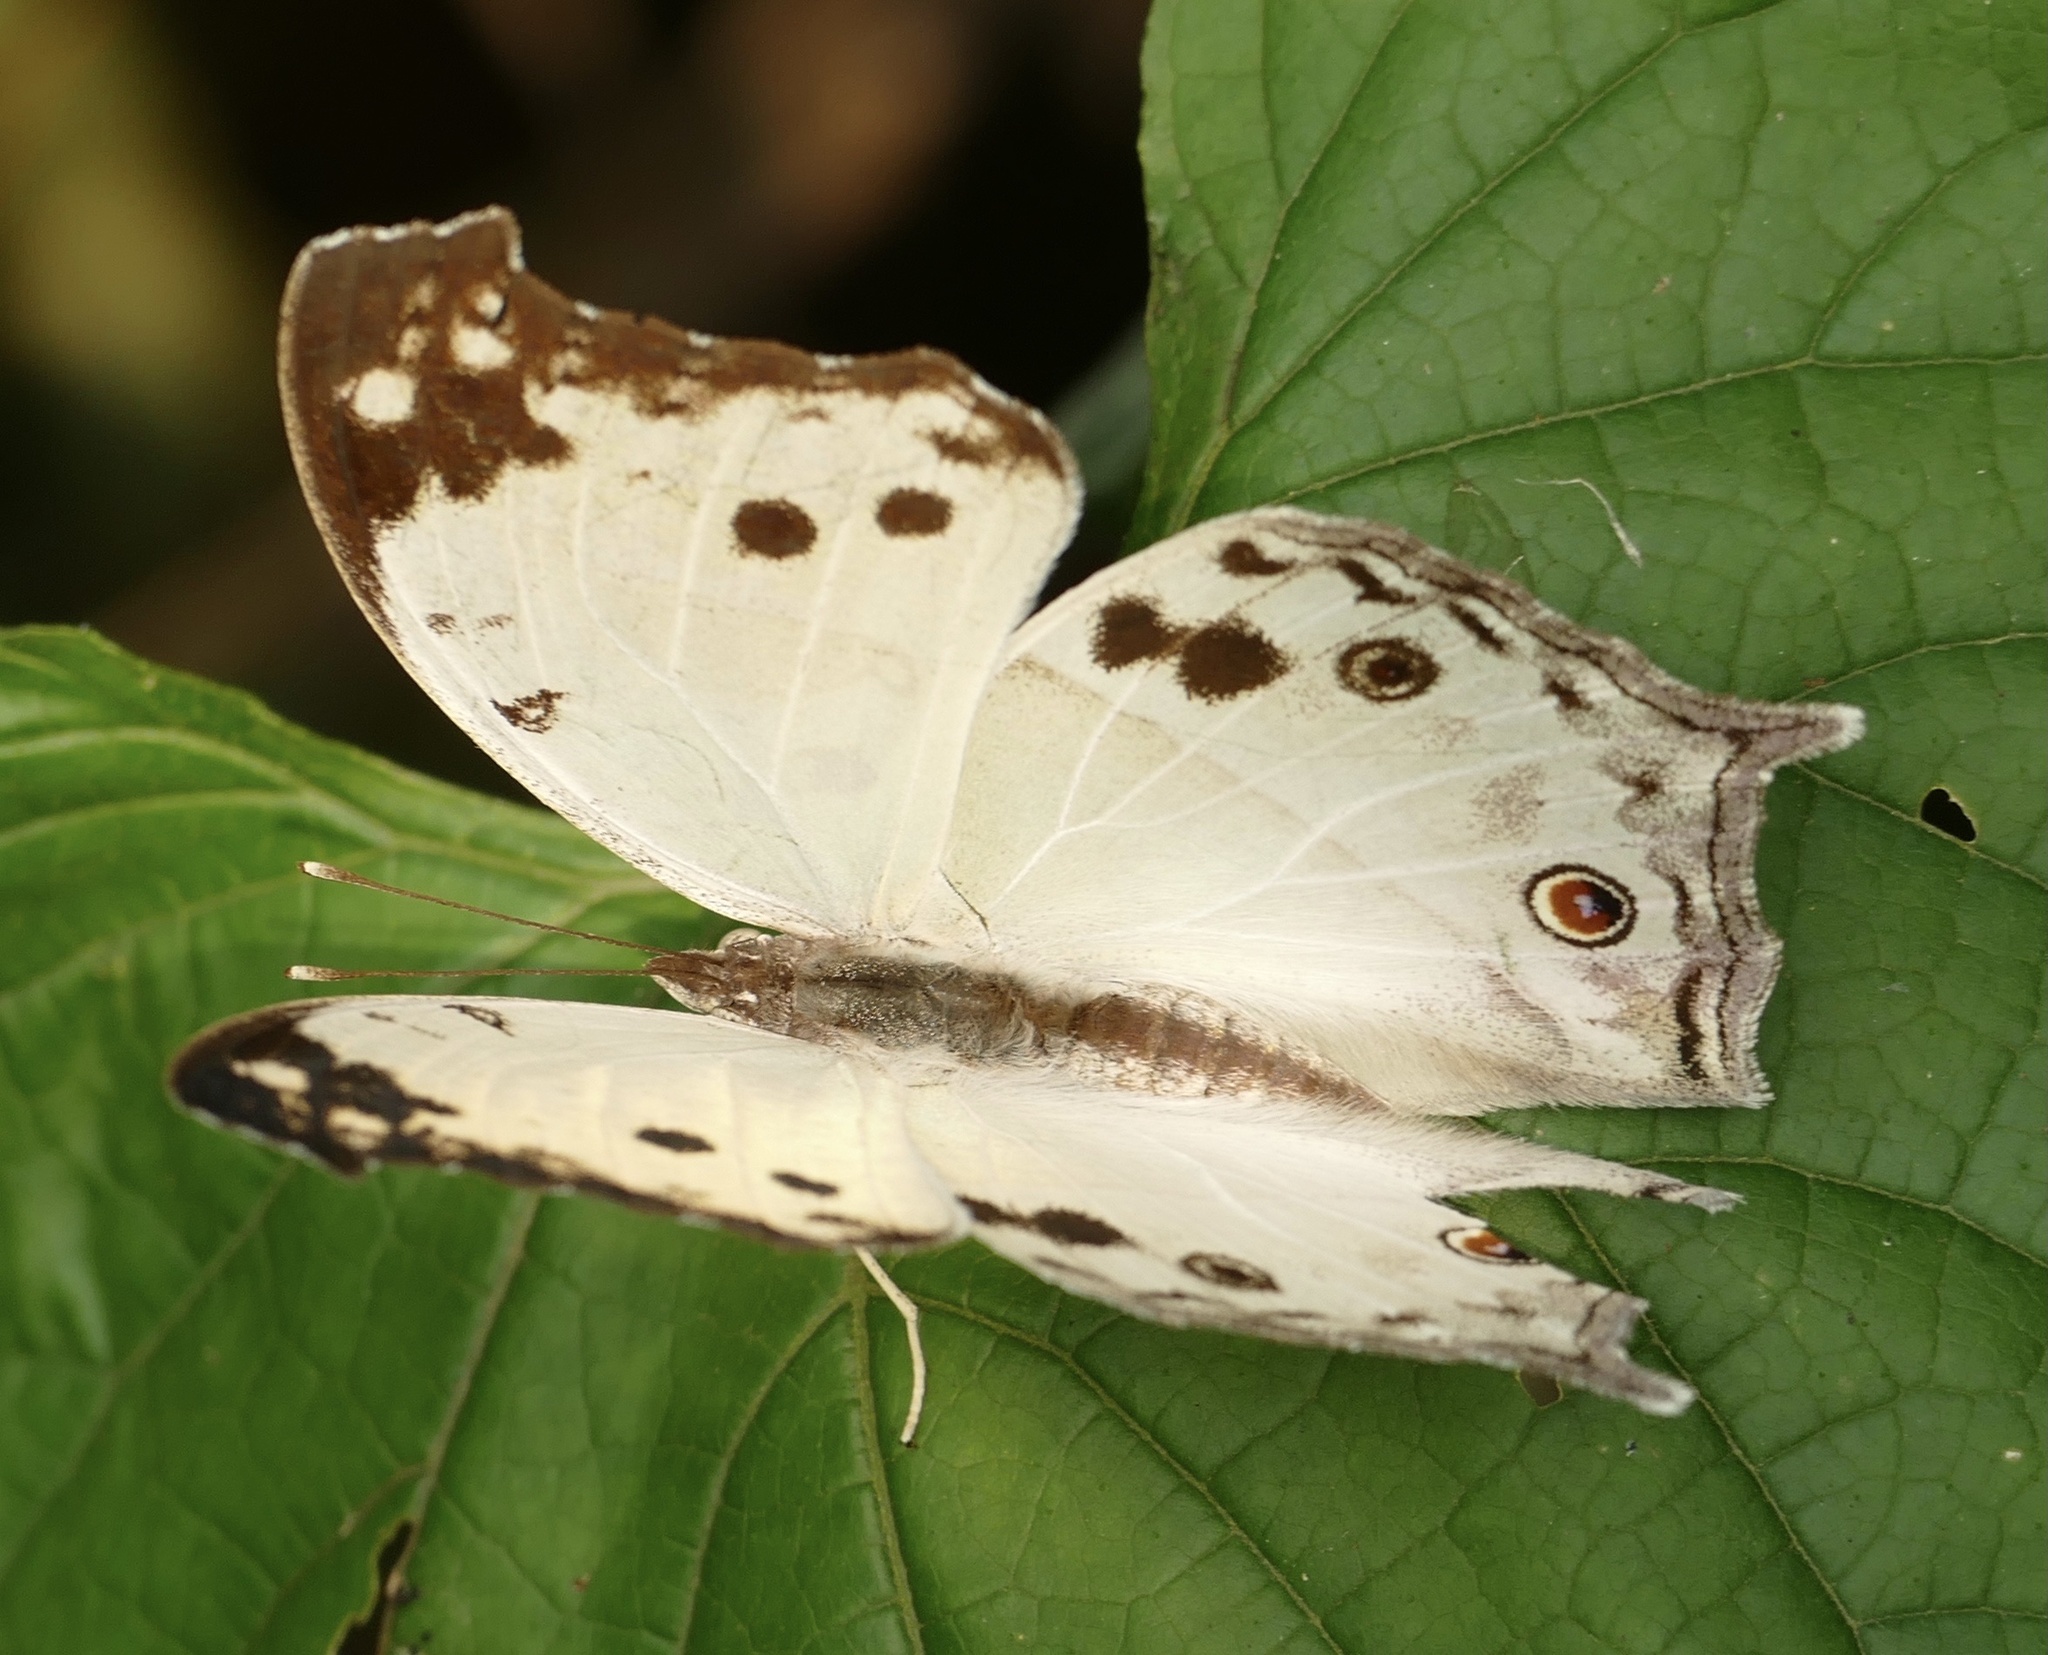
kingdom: Animalia
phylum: Arthropoda
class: Insecta
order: Lepidoptera
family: Nymphalidae
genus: Salamis
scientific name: Salamis Protogoniomorpha parhassus
